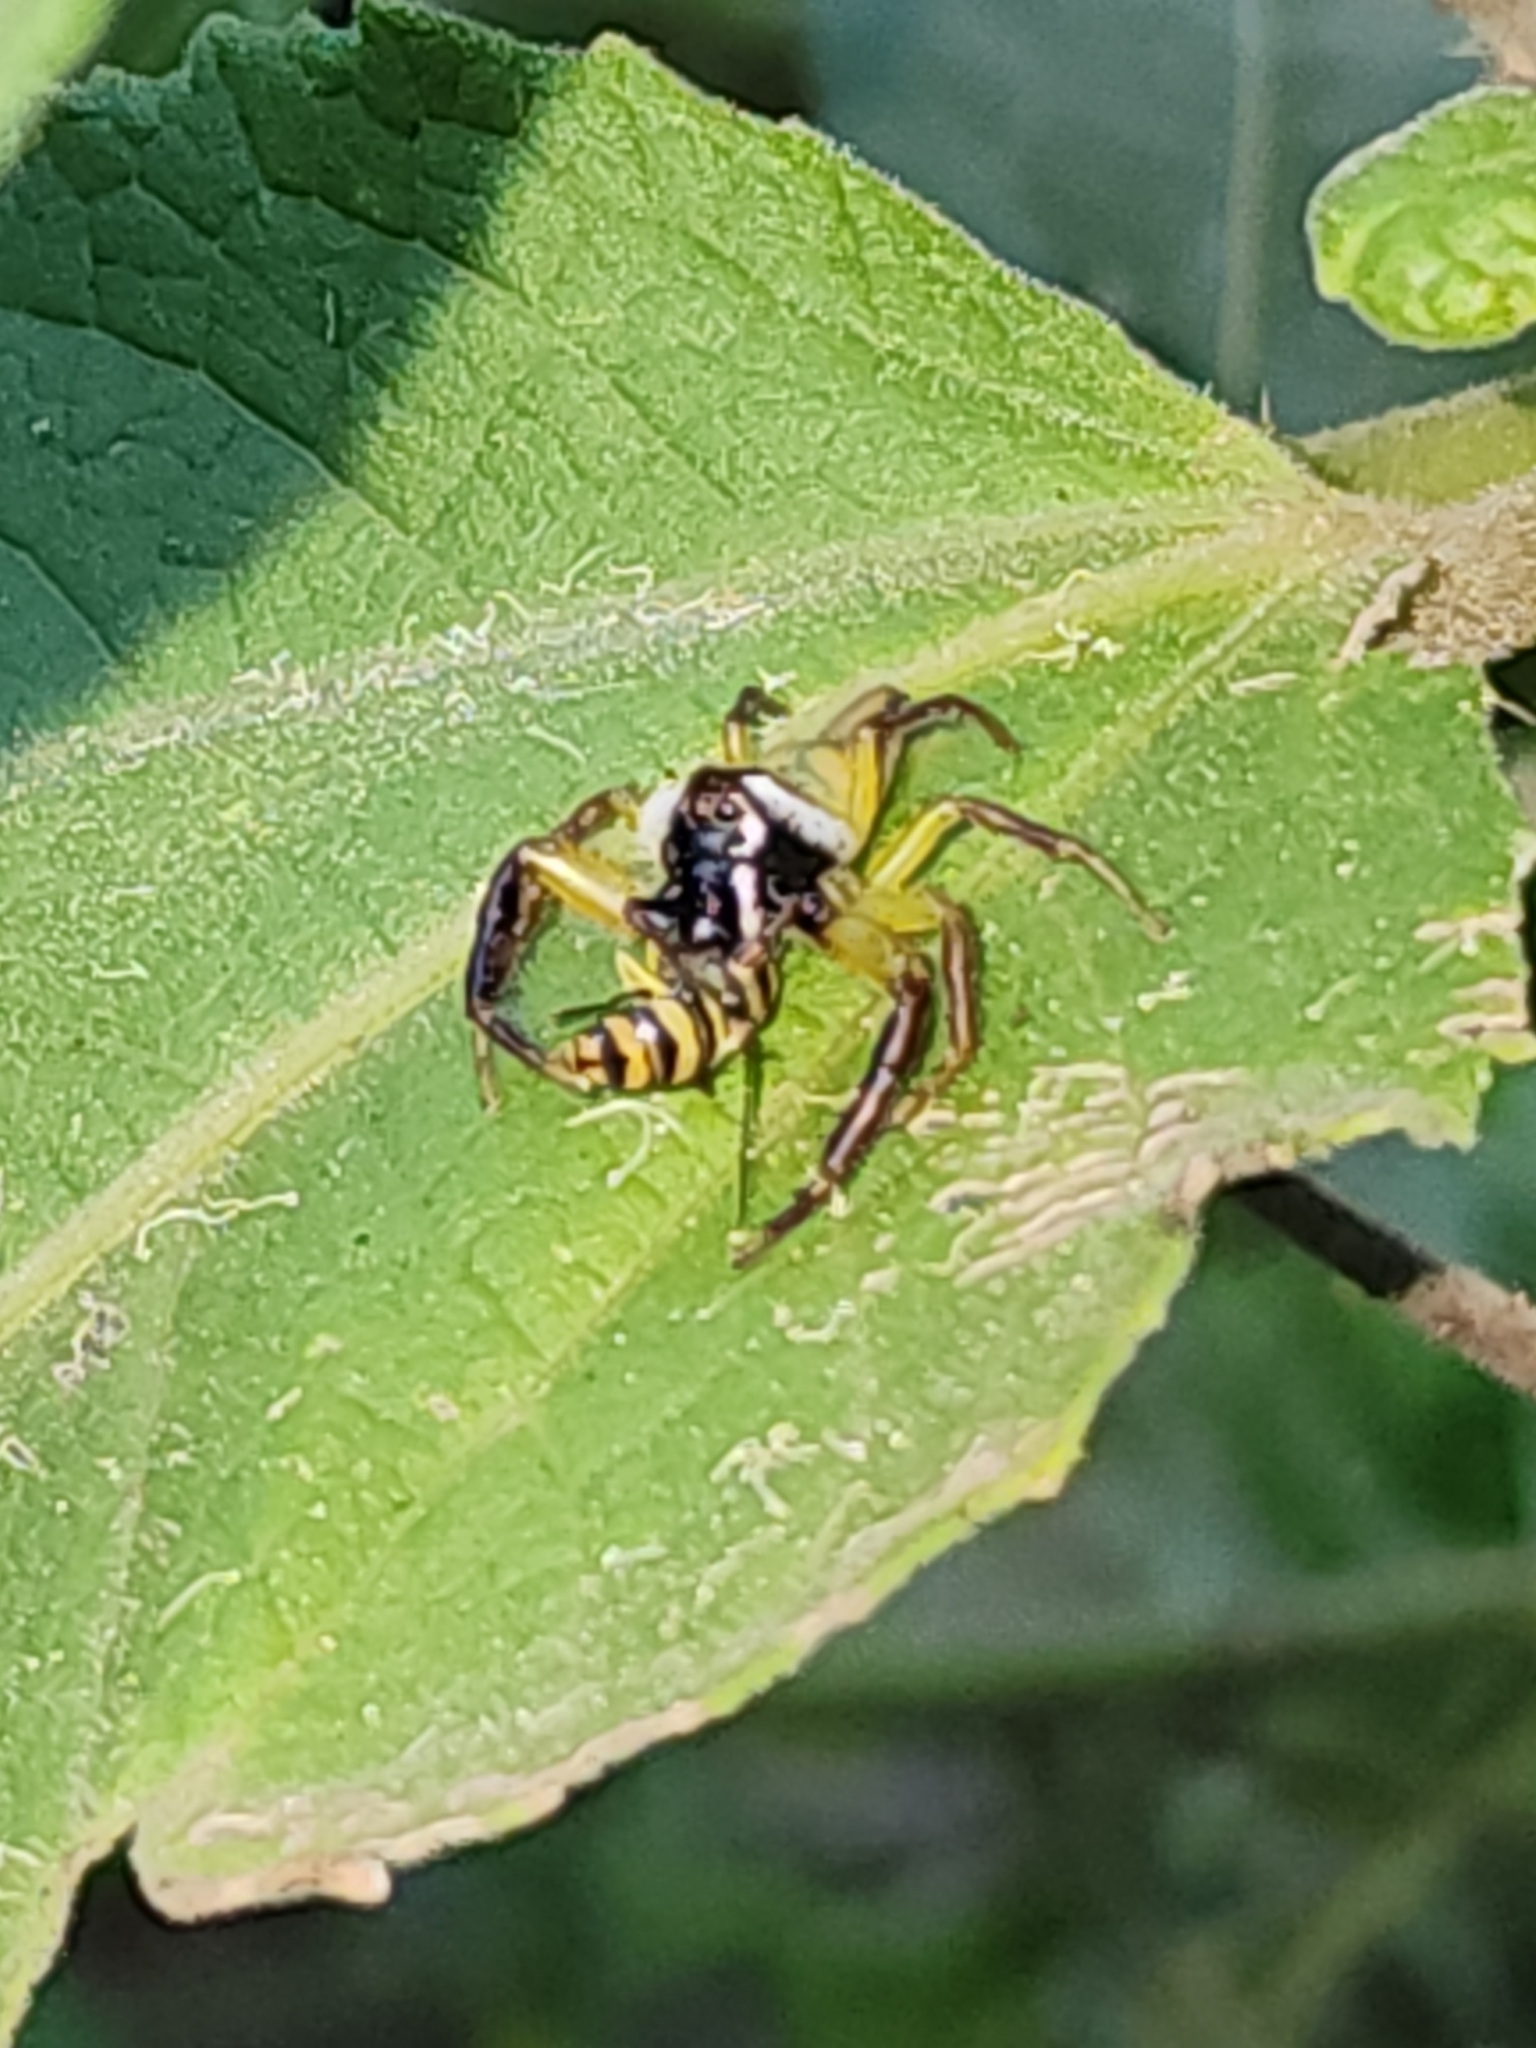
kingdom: Animalia
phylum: Arthropoda
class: Arachnida
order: Araneae
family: Salticidae
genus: Mopsus
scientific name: Mopsus mormon
